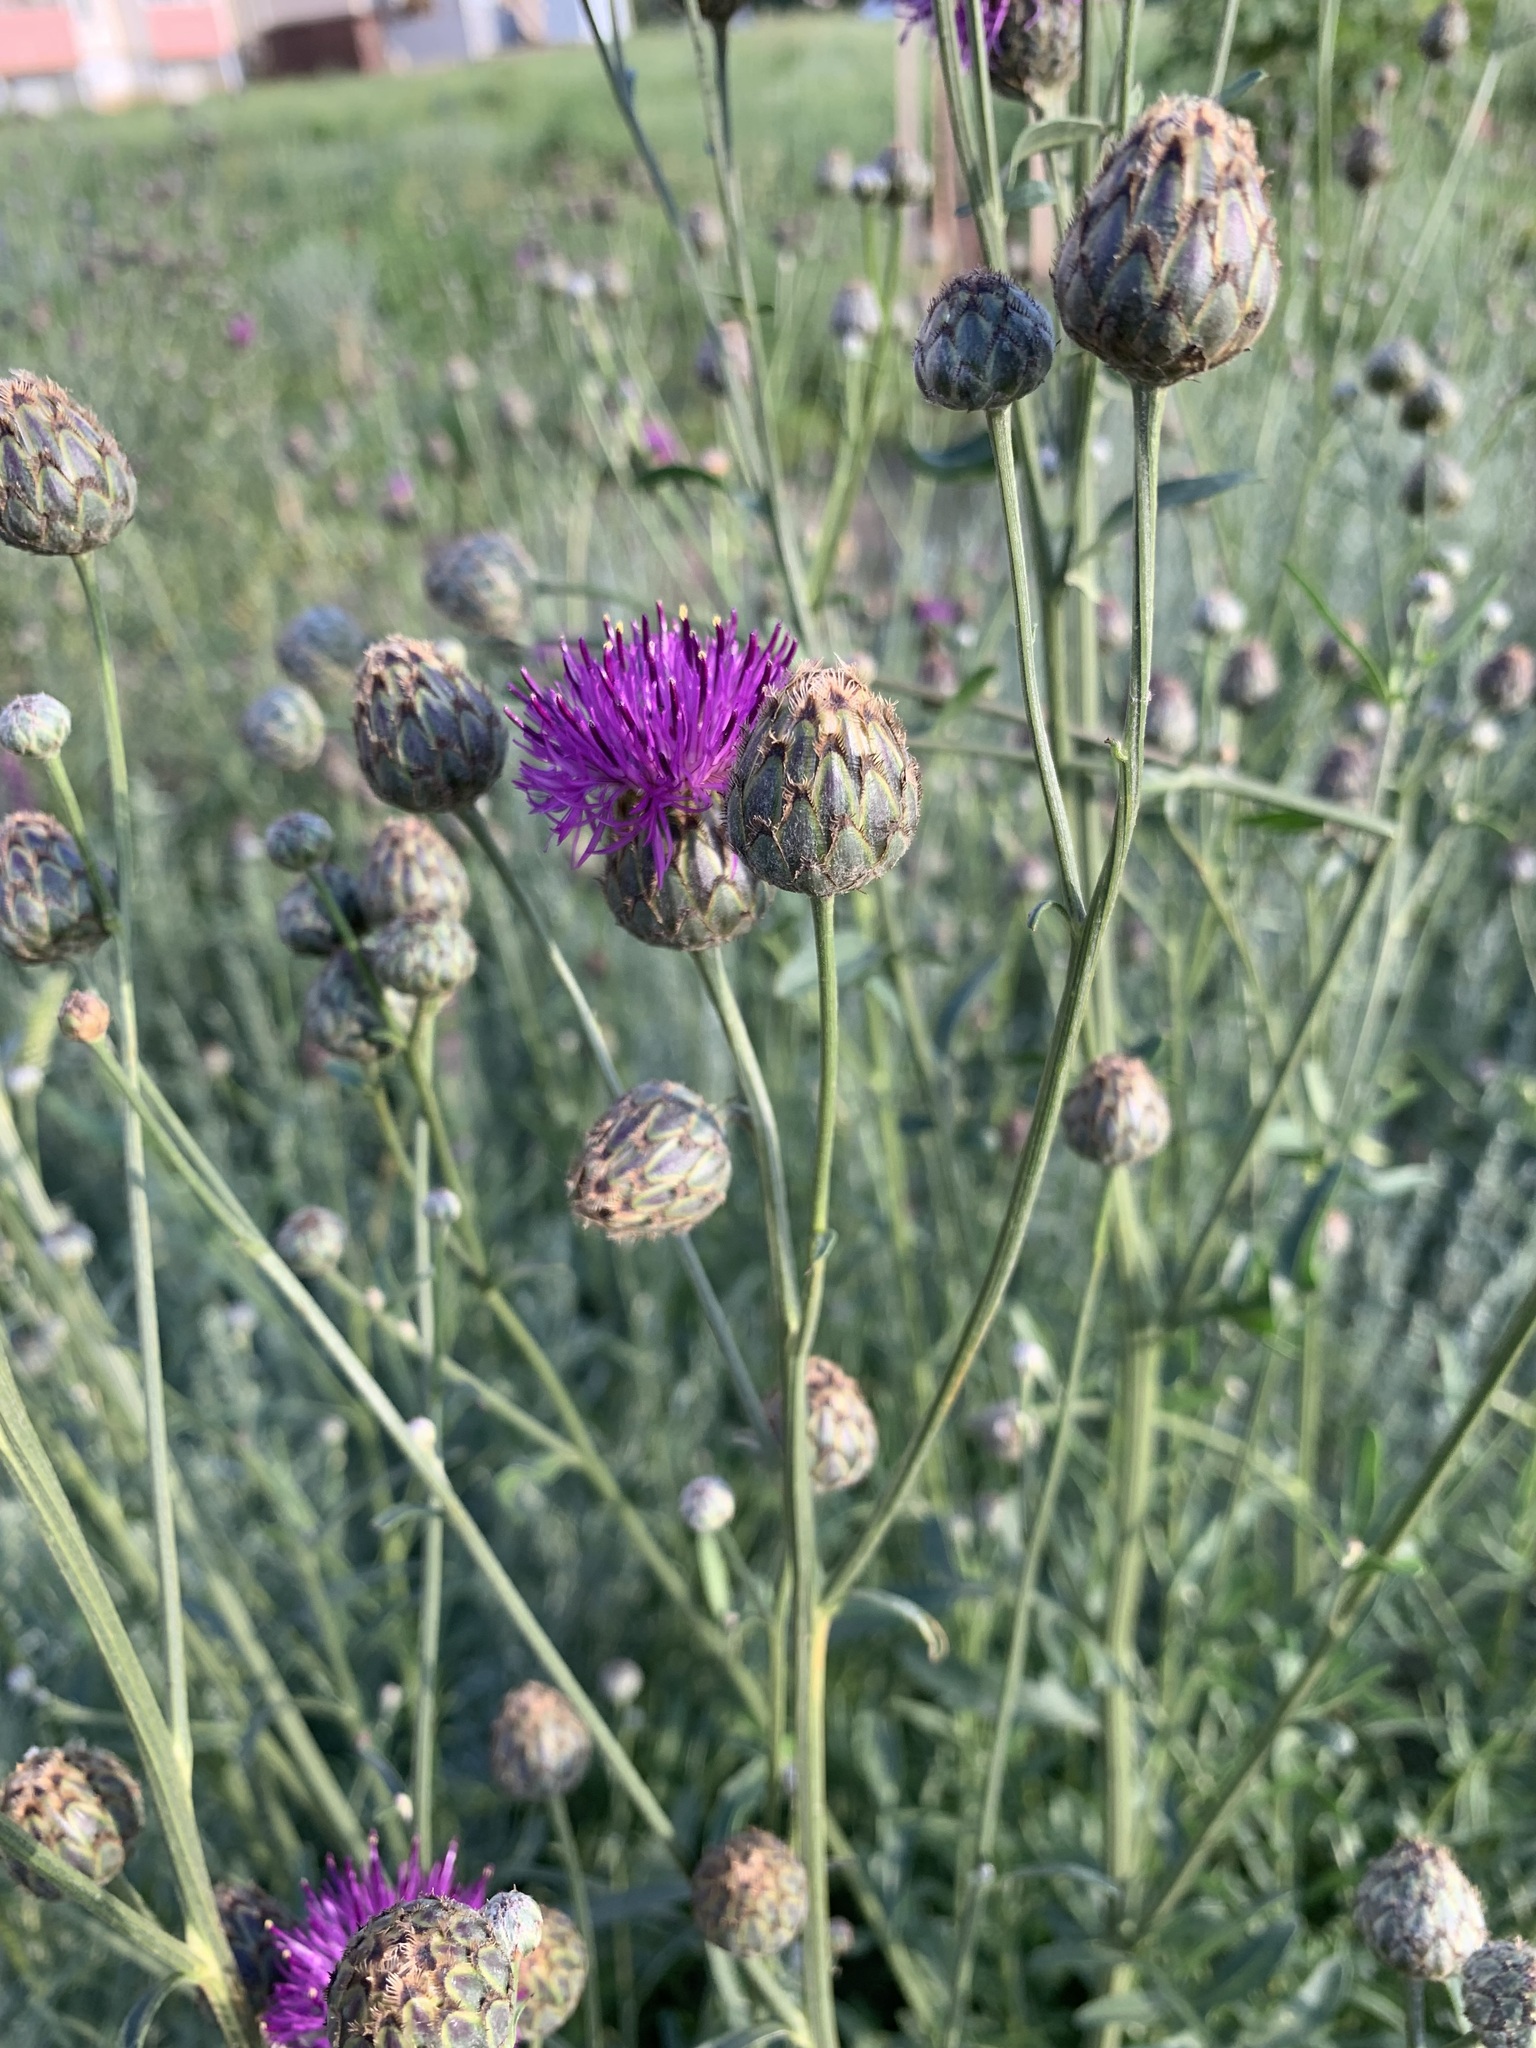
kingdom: Plantae
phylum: Tracheophyta
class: Magnoliopsida
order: Asterales
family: Asteraceae
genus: Centaurea
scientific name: Centaurea scabiosa
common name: Greater knapweed
